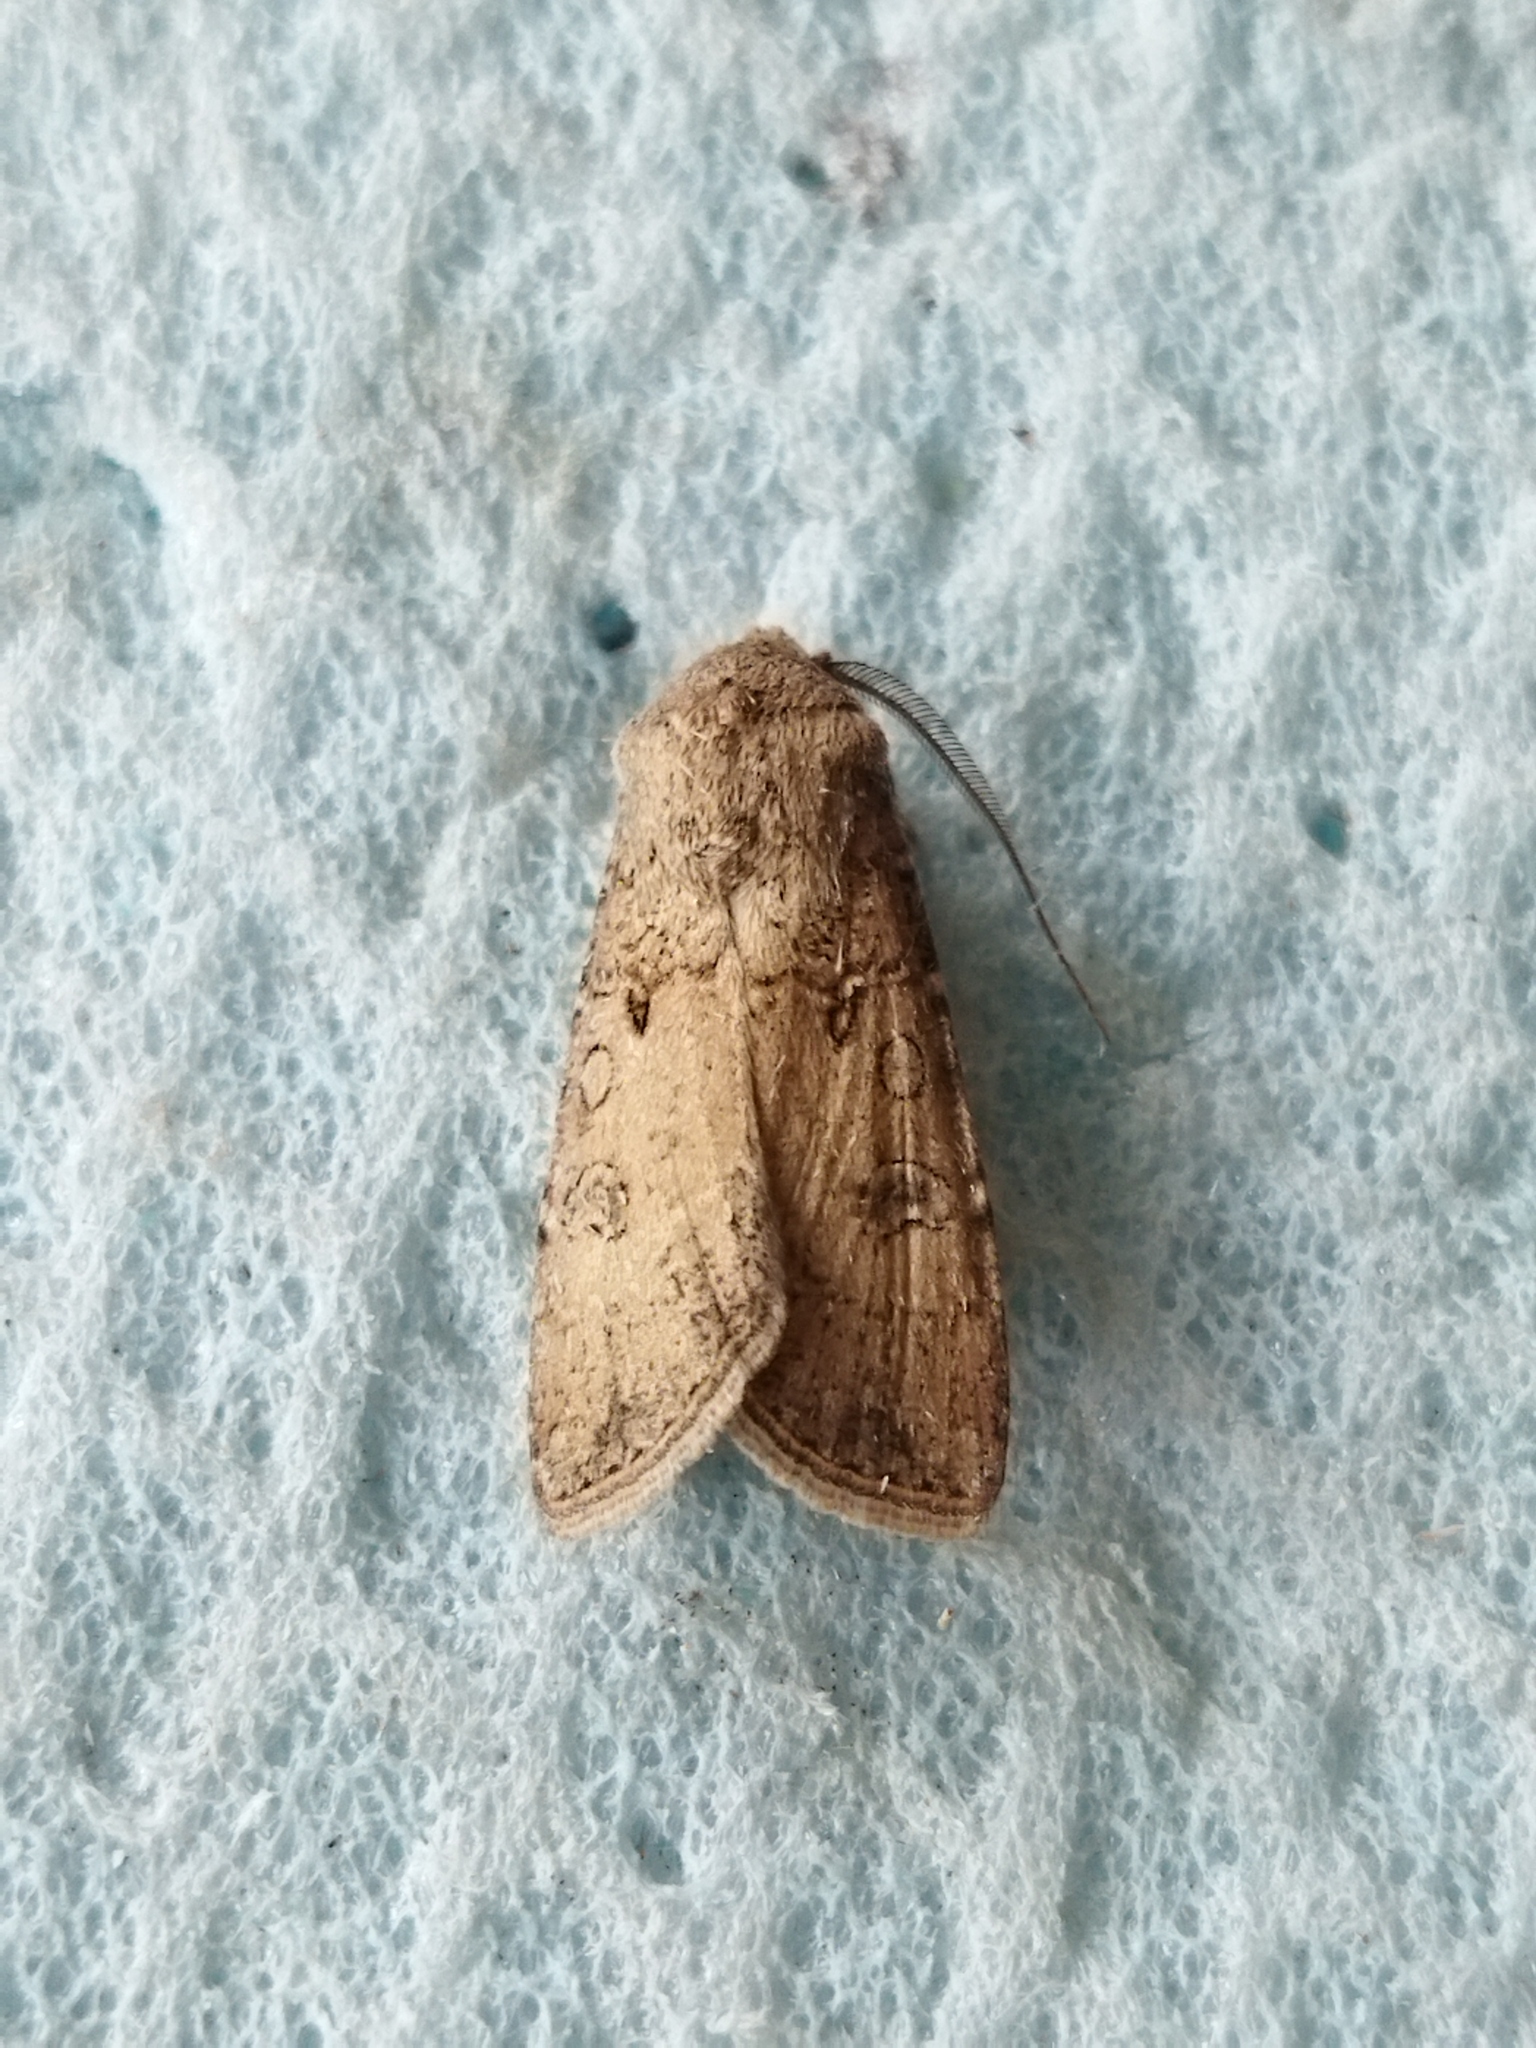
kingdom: Animalia
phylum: Arthropoda
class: Insecta
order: Lepidoptera
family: Noctuidae
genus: Agrotis
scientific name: Agrotis segetum
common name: Turnip moth
